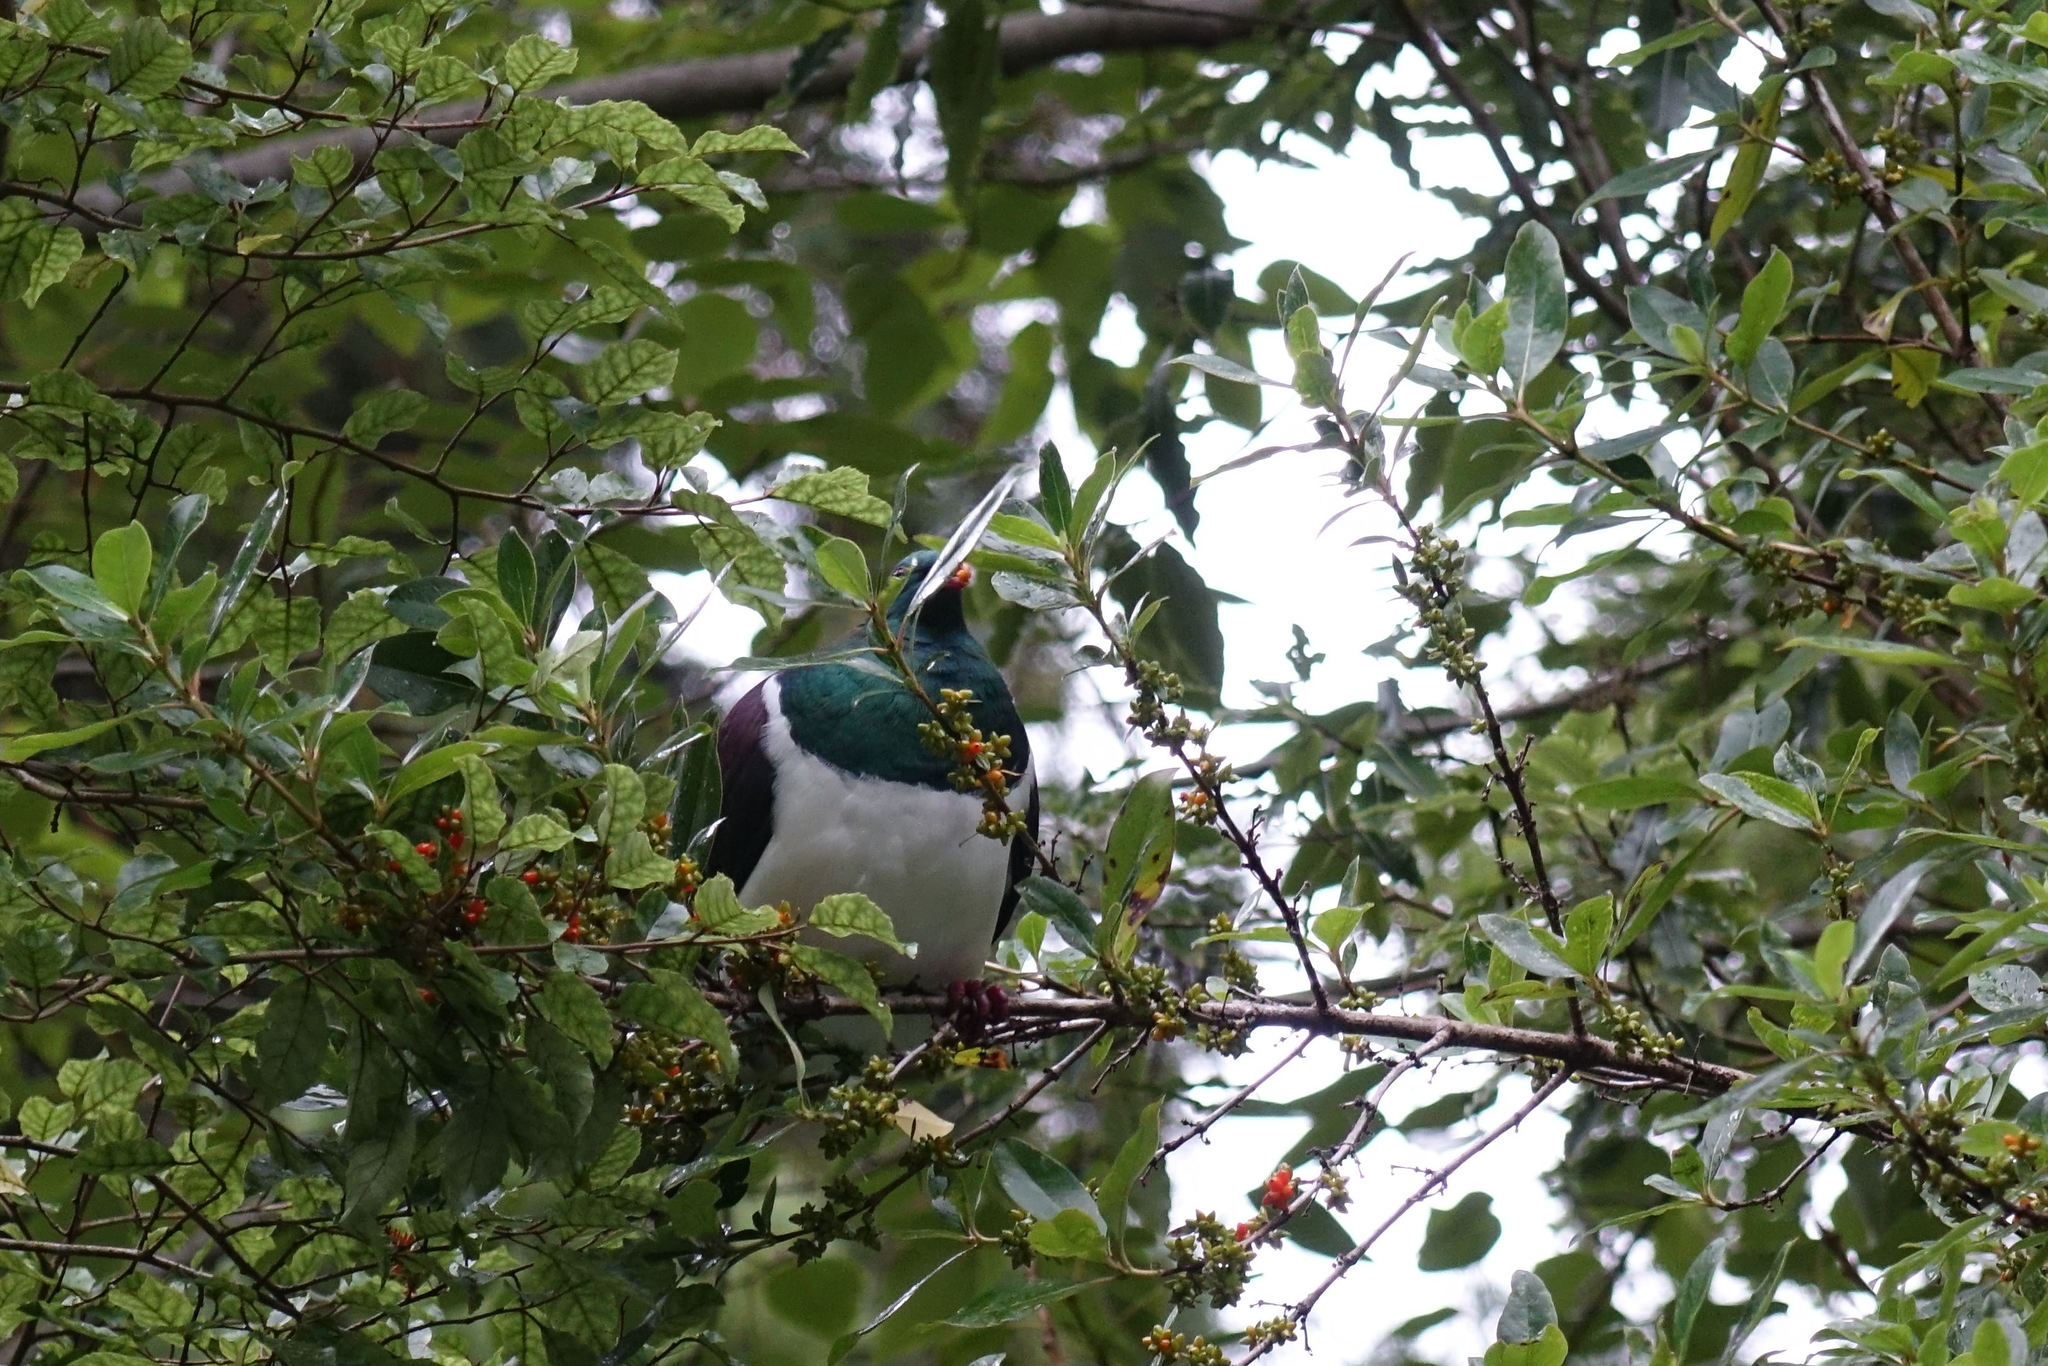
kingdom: Animalia
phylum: Chordata
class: Aves
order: Columbiformes
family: Columbidae
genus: Hemiphaga
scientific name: Hemiphaga novaeseelandiae
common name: New zealand pigeon
